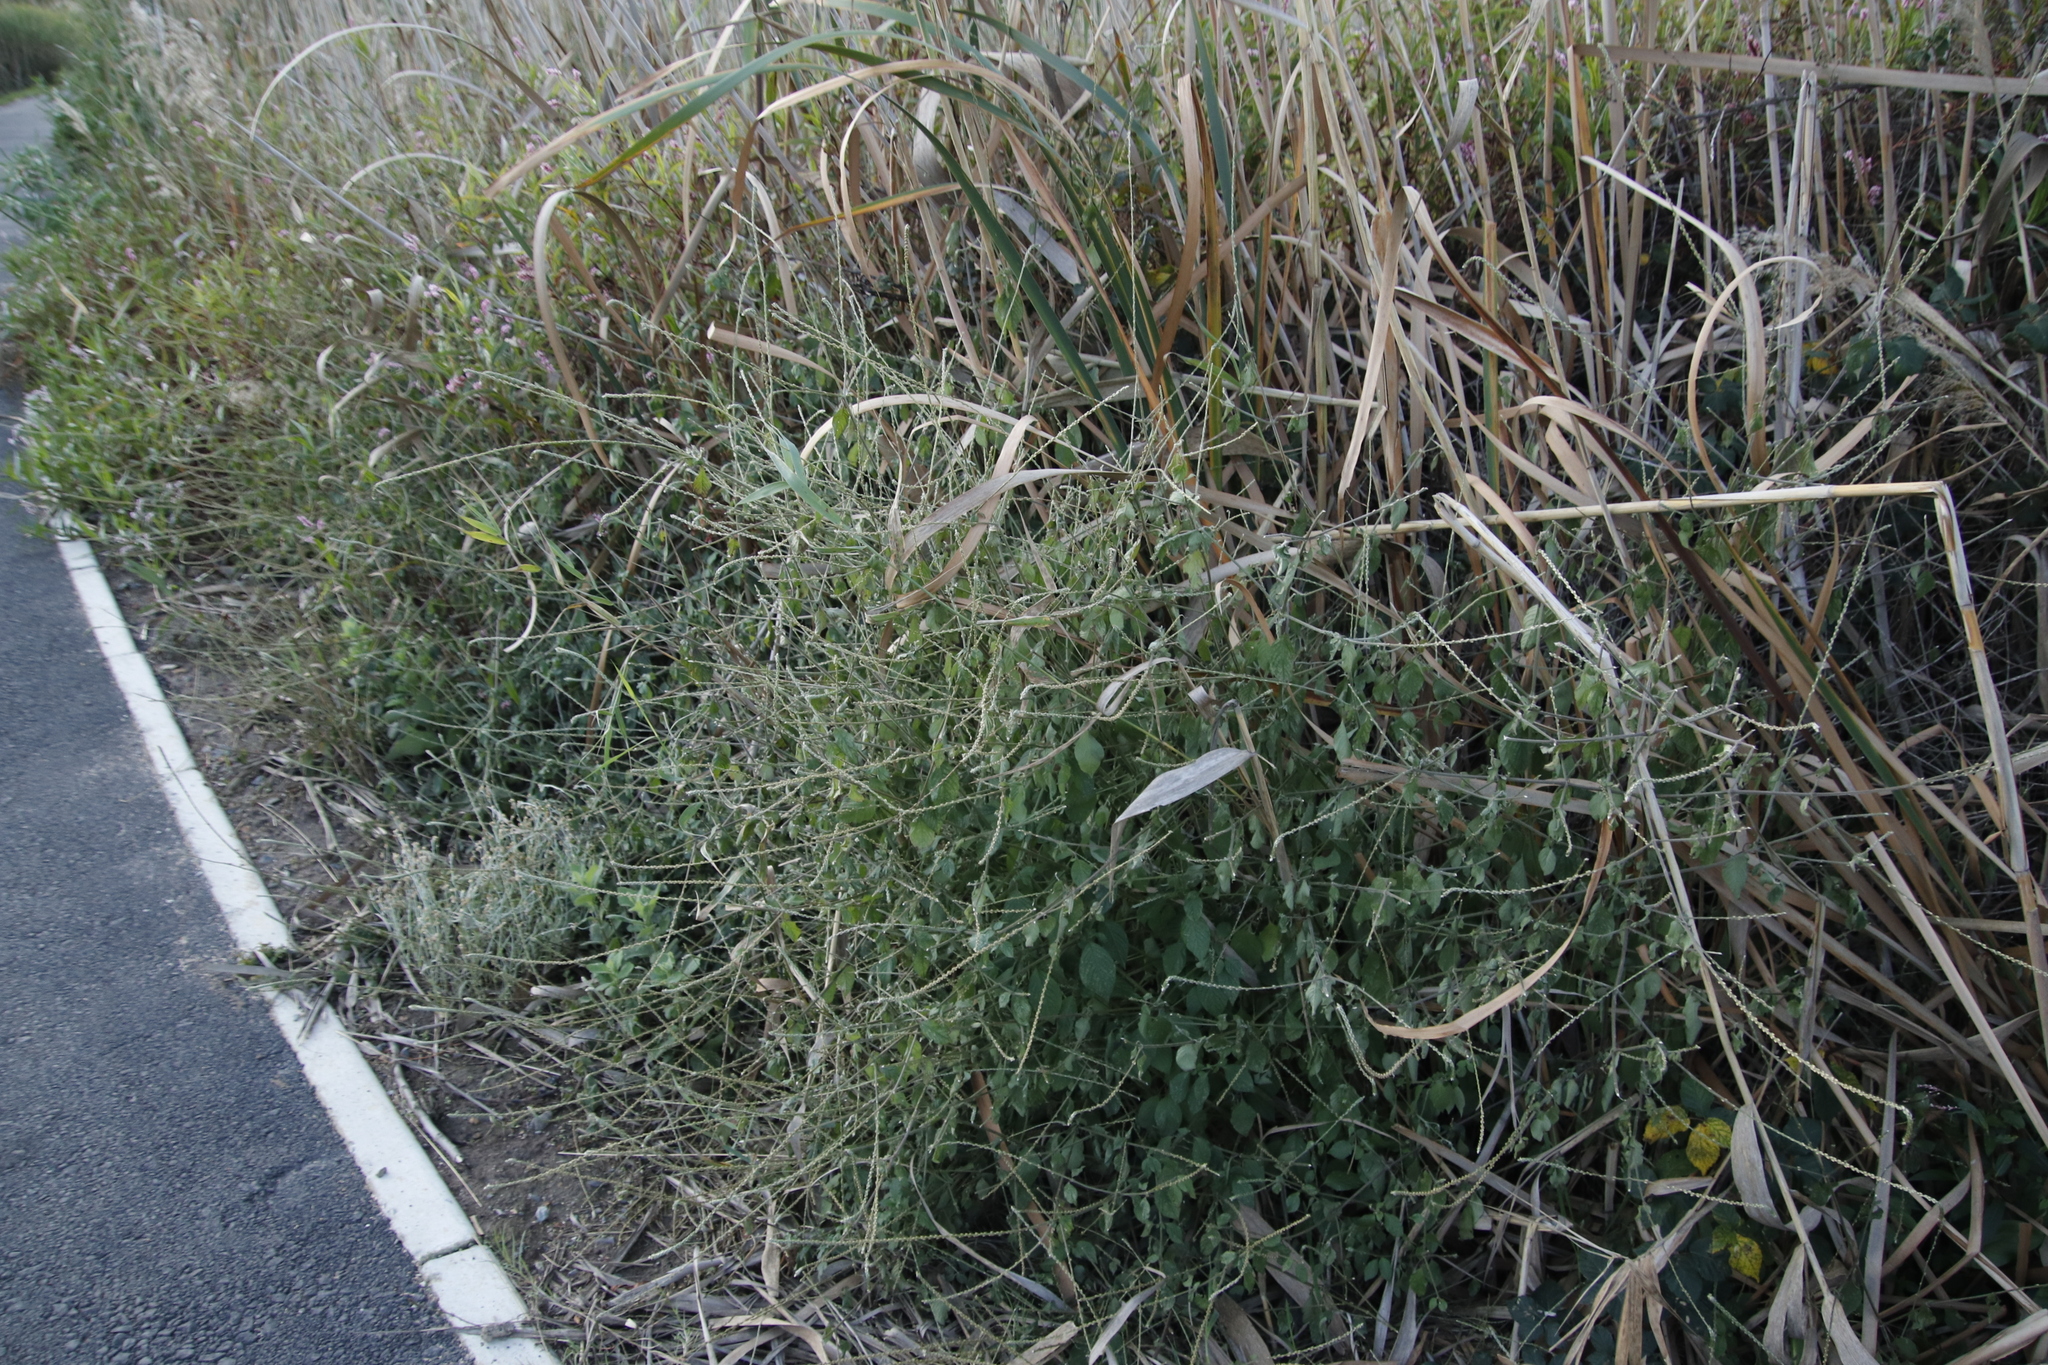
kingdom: Plantae
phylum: Tracheophyta
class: Magnoliopsida
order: Caryophyllales
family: Amaranthaceae
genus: Achyranthes
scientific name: Achyranthes aspera
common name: Devil's horsewhip
